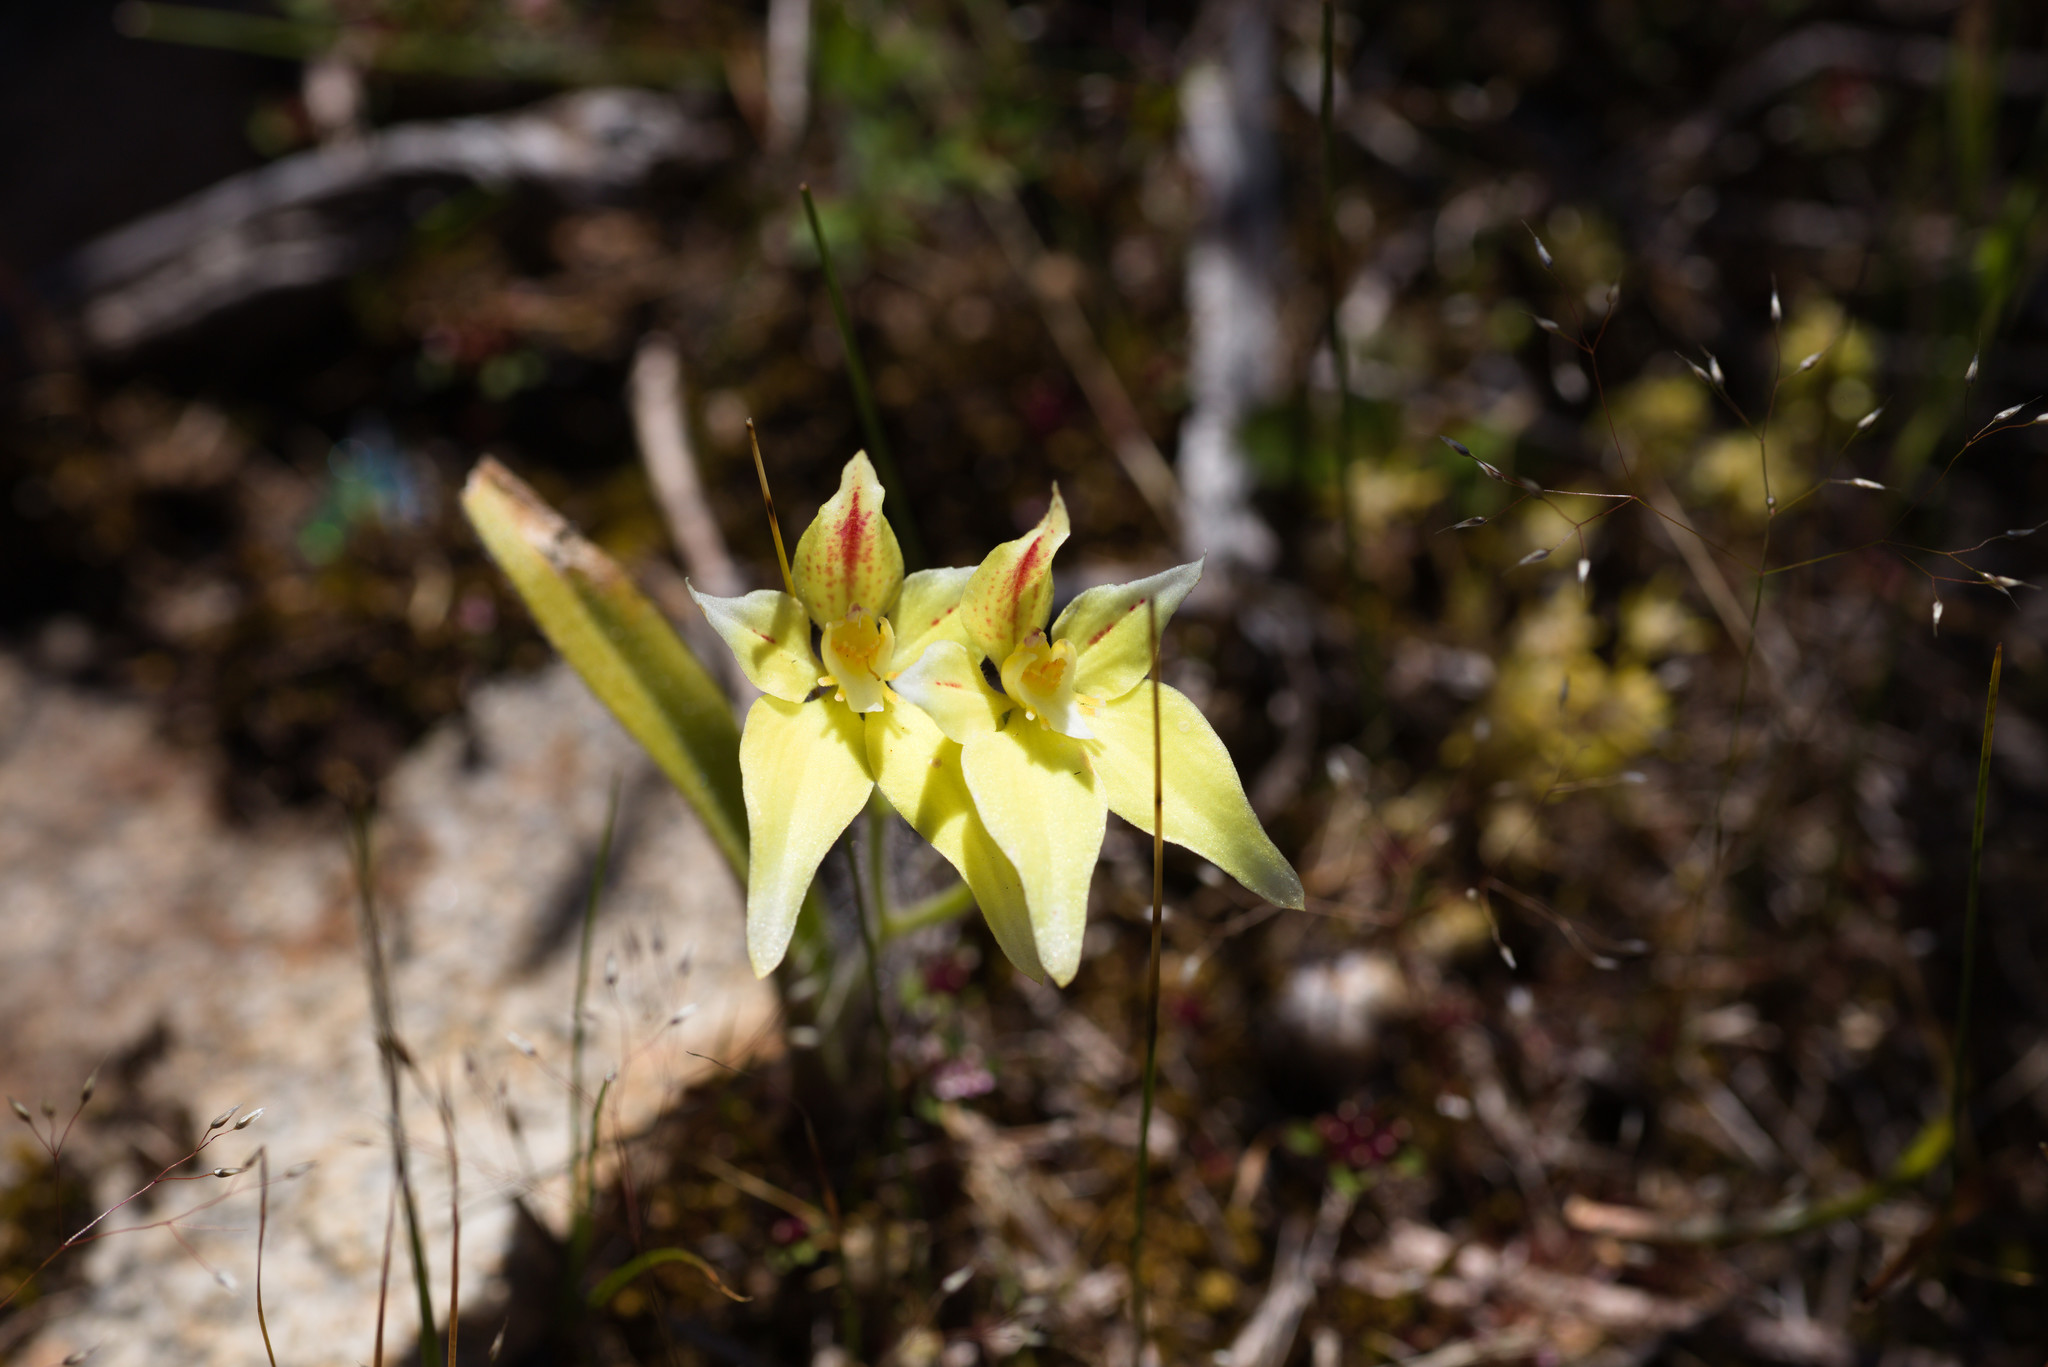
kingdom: Plantae
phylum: Tracheophyta
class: Liliopsida
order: Asparagales
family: Orchidaceae
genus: Caladenia
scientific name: Caladenia flava
